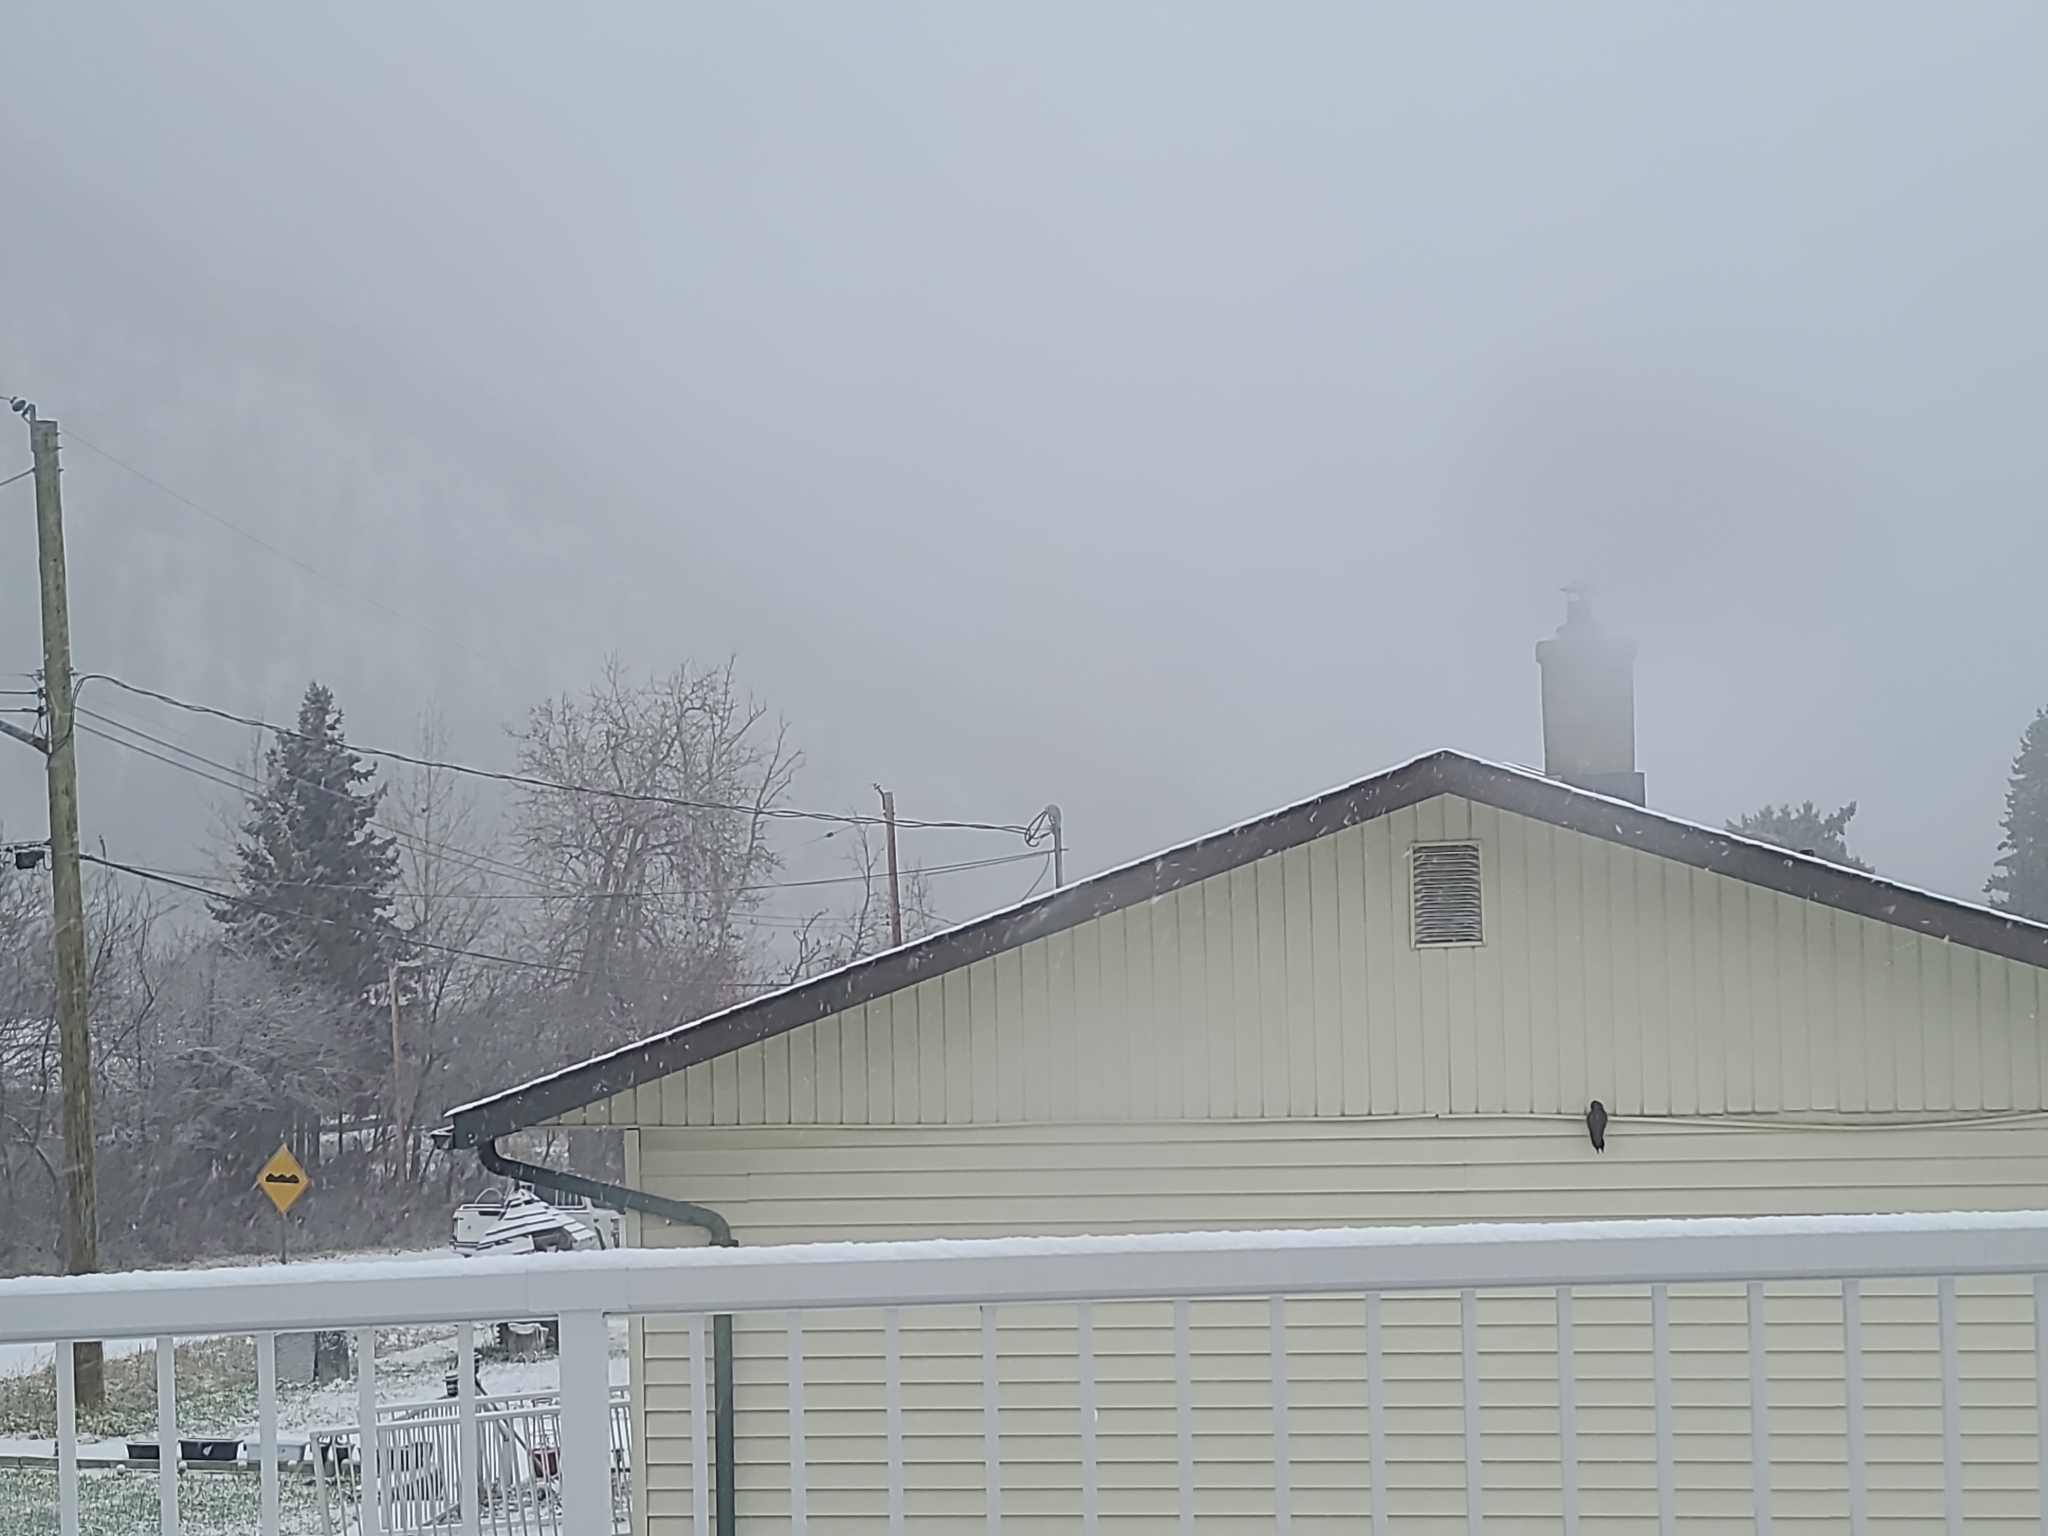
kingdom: Animalia
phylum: Chordata
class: Aves
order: Piciformes
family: Picidae
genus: Colaptes
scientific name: Colaptes auratus
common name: Northern flicker
